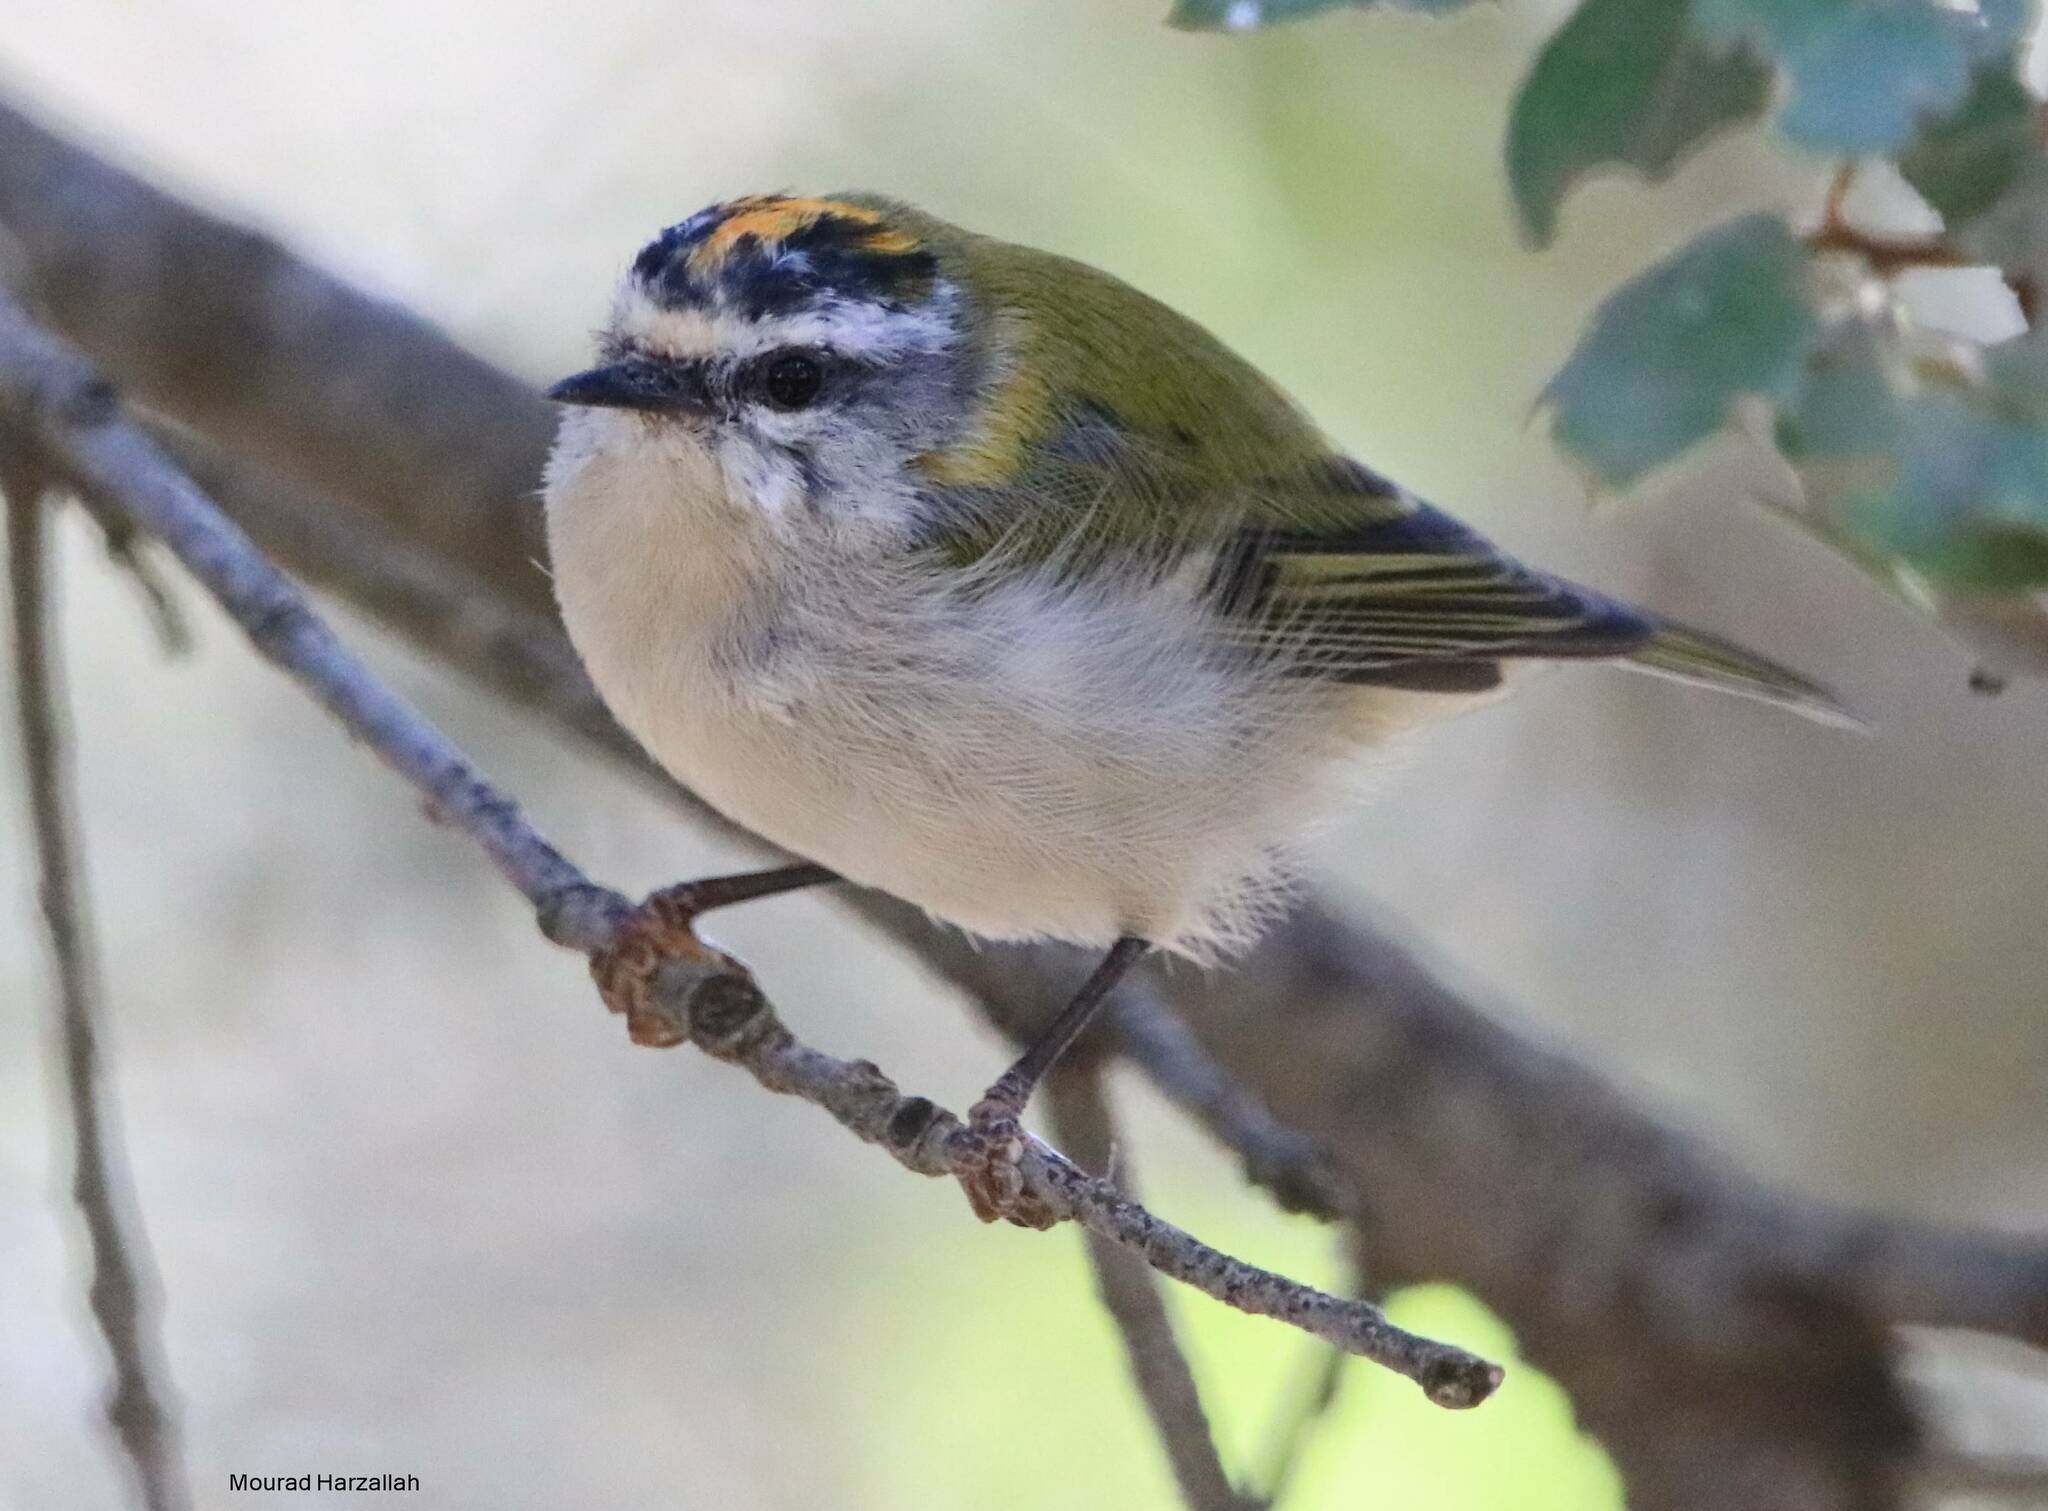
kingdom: Animalia
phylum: Chordata
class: Aves
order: Passeriformes
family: Regulidae
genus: Regulus
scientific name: Regulus ignicapilla
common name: Firecrest
